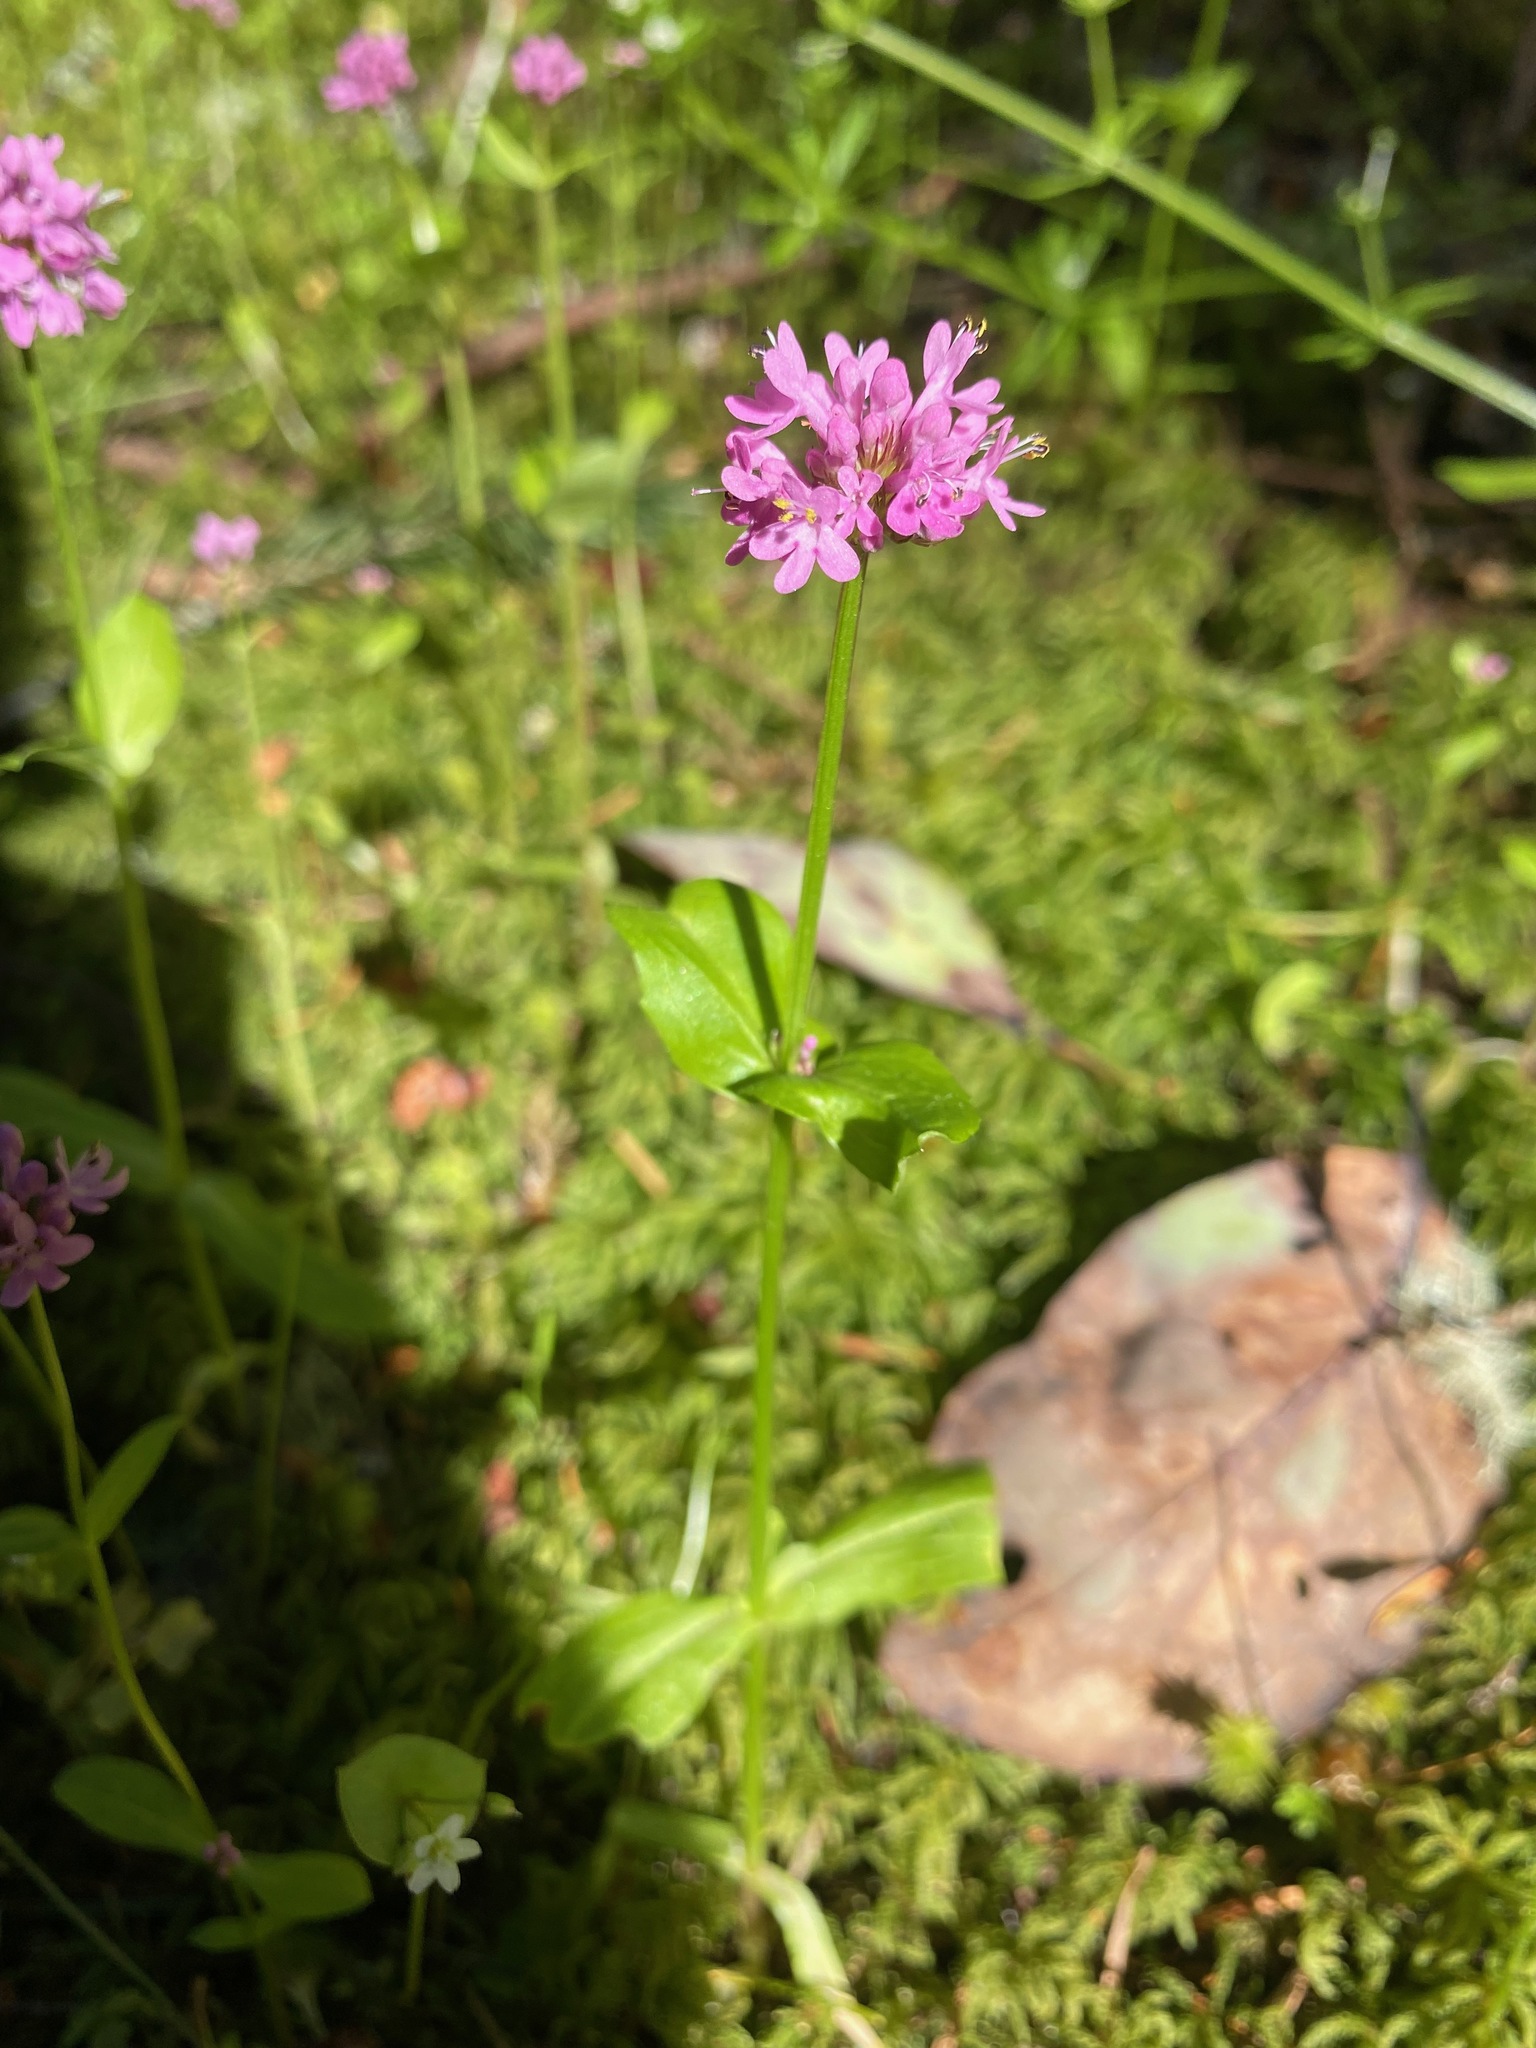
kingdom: Plantae
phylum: Tracheophyta
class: Magnoliopsida
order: Dipsacales
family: Caprifoliaceae
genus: Plectritis
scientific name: Plectritis congesta
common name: Pink plectritis
